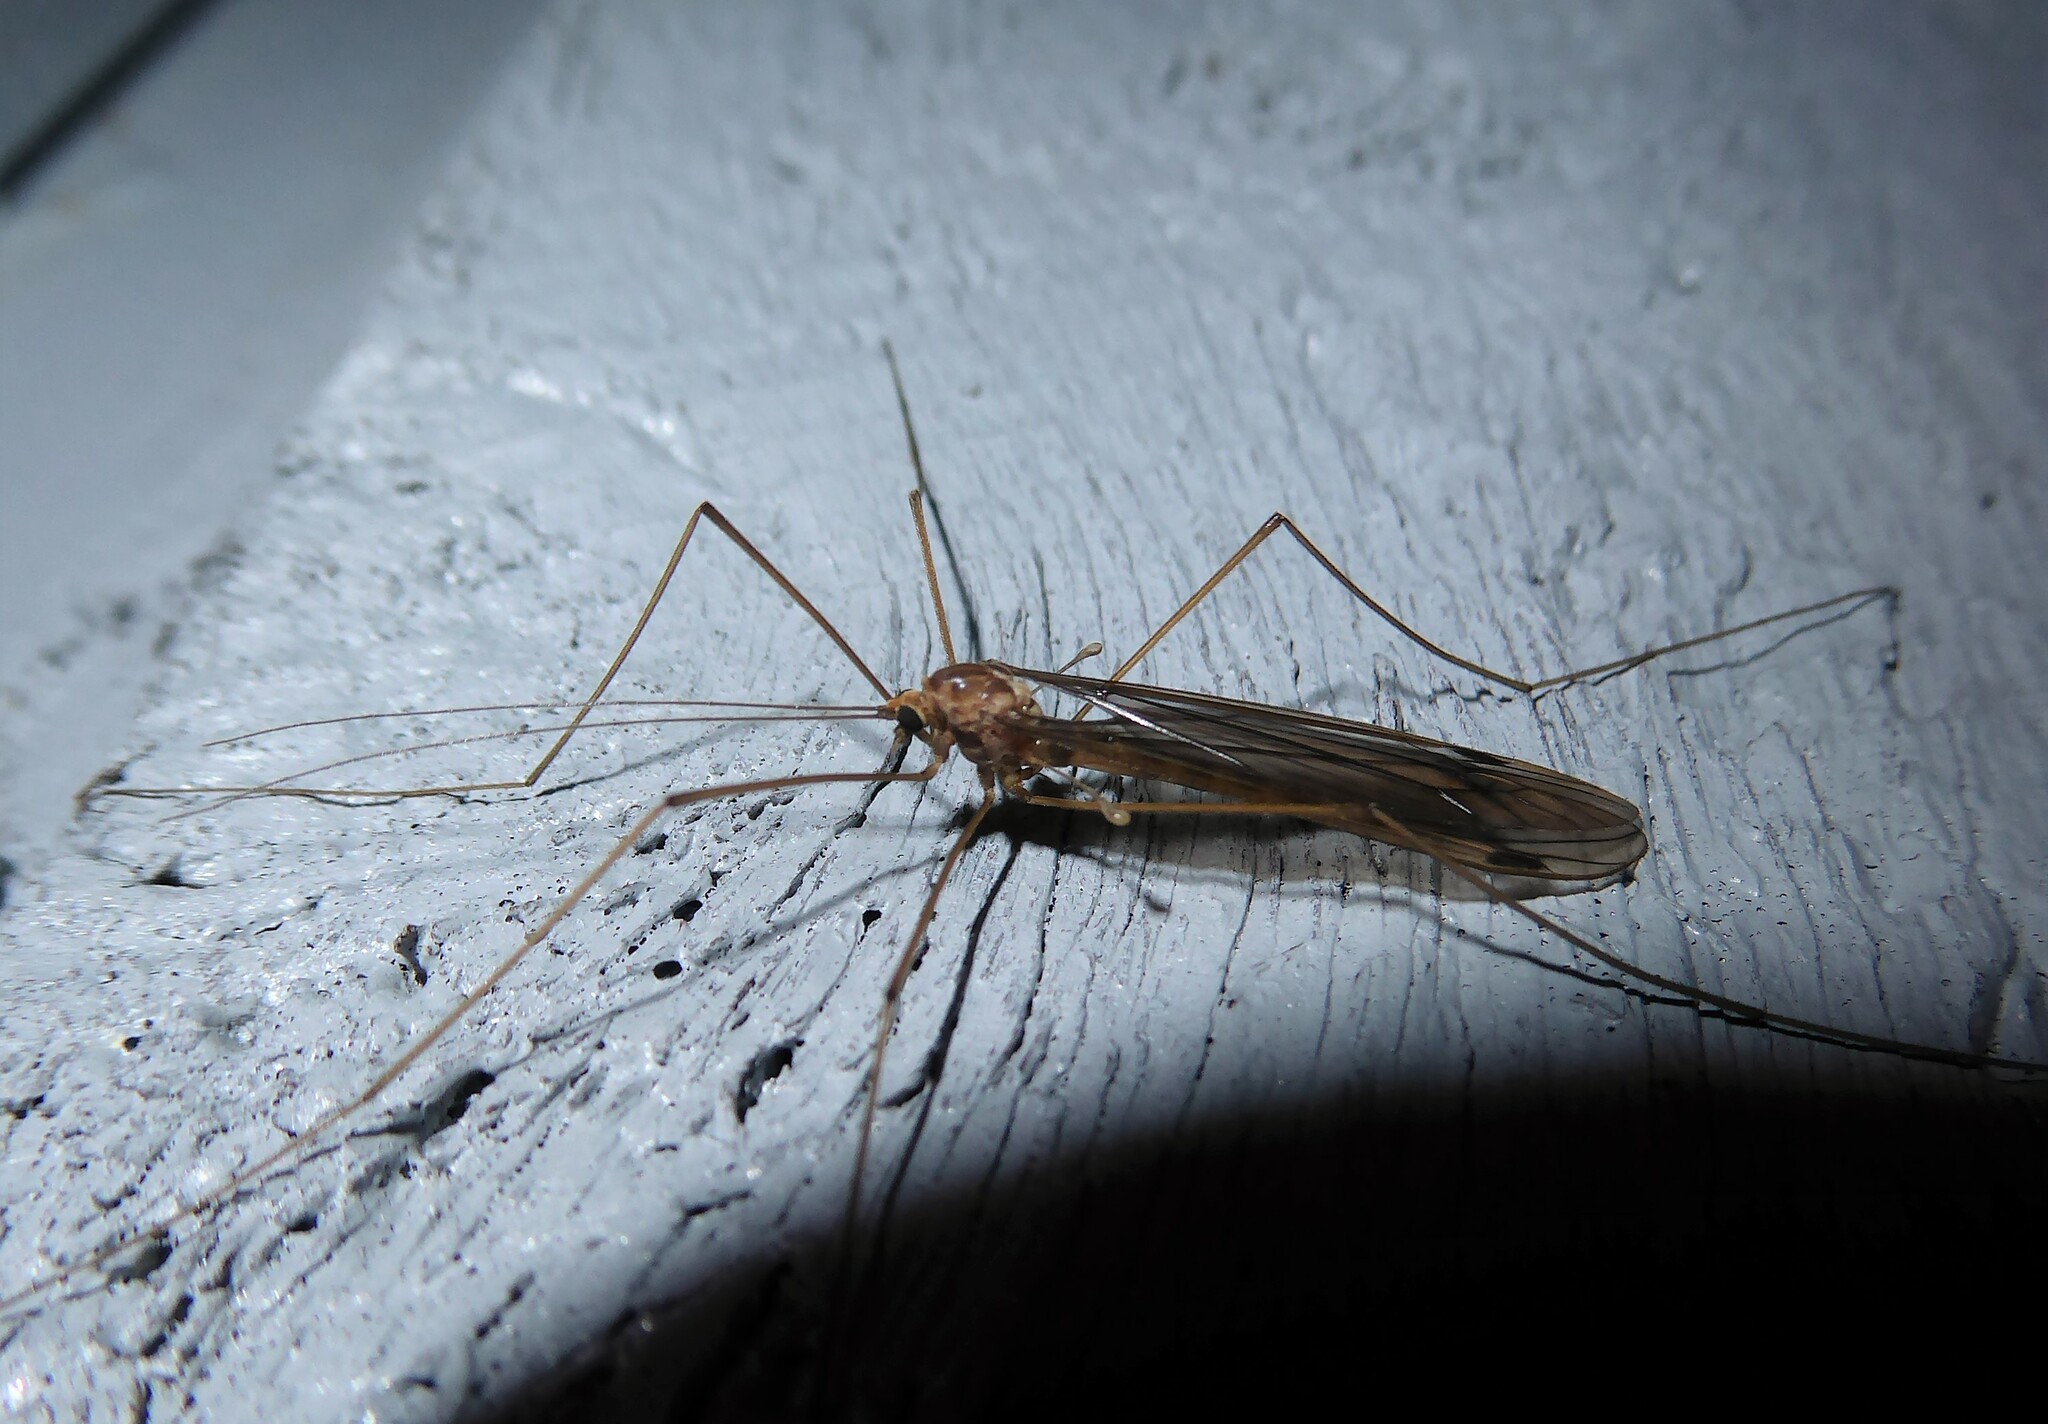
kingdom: Animalia
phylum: Arthropoda
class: Insecta
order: Diptera
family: Tipulidae
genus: Leptotarsus
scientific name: Leptotarsus pallidus
